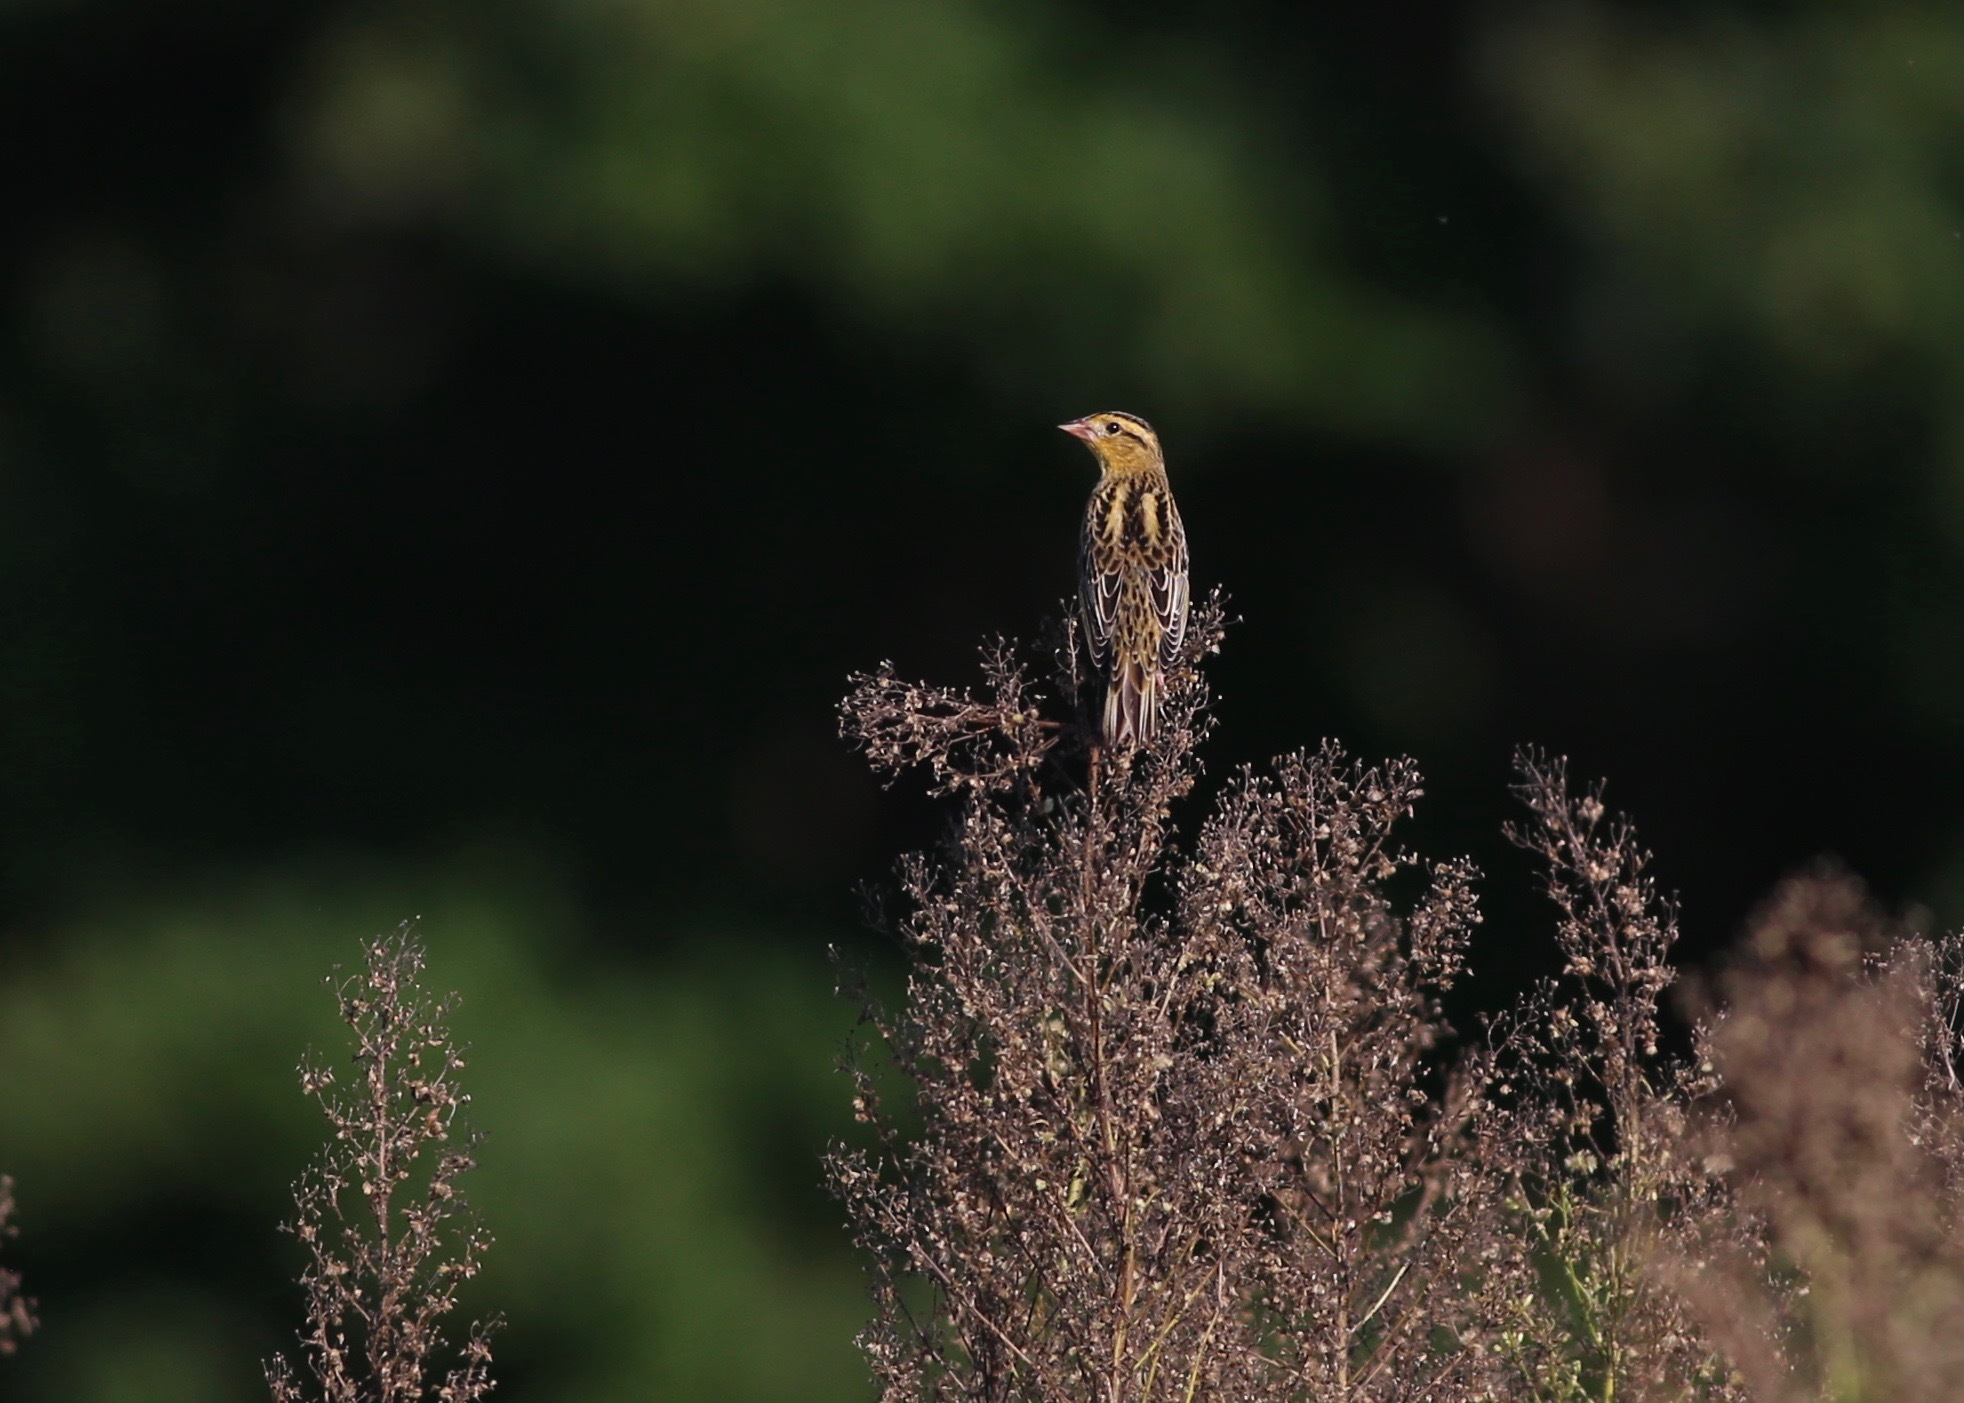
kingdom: Animalia
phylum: Chordata
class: Aves
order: Passeriformes
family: Icteridae
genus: Dolichonyx
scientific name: Dolichonyx oryzivorus
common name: Bobolink
